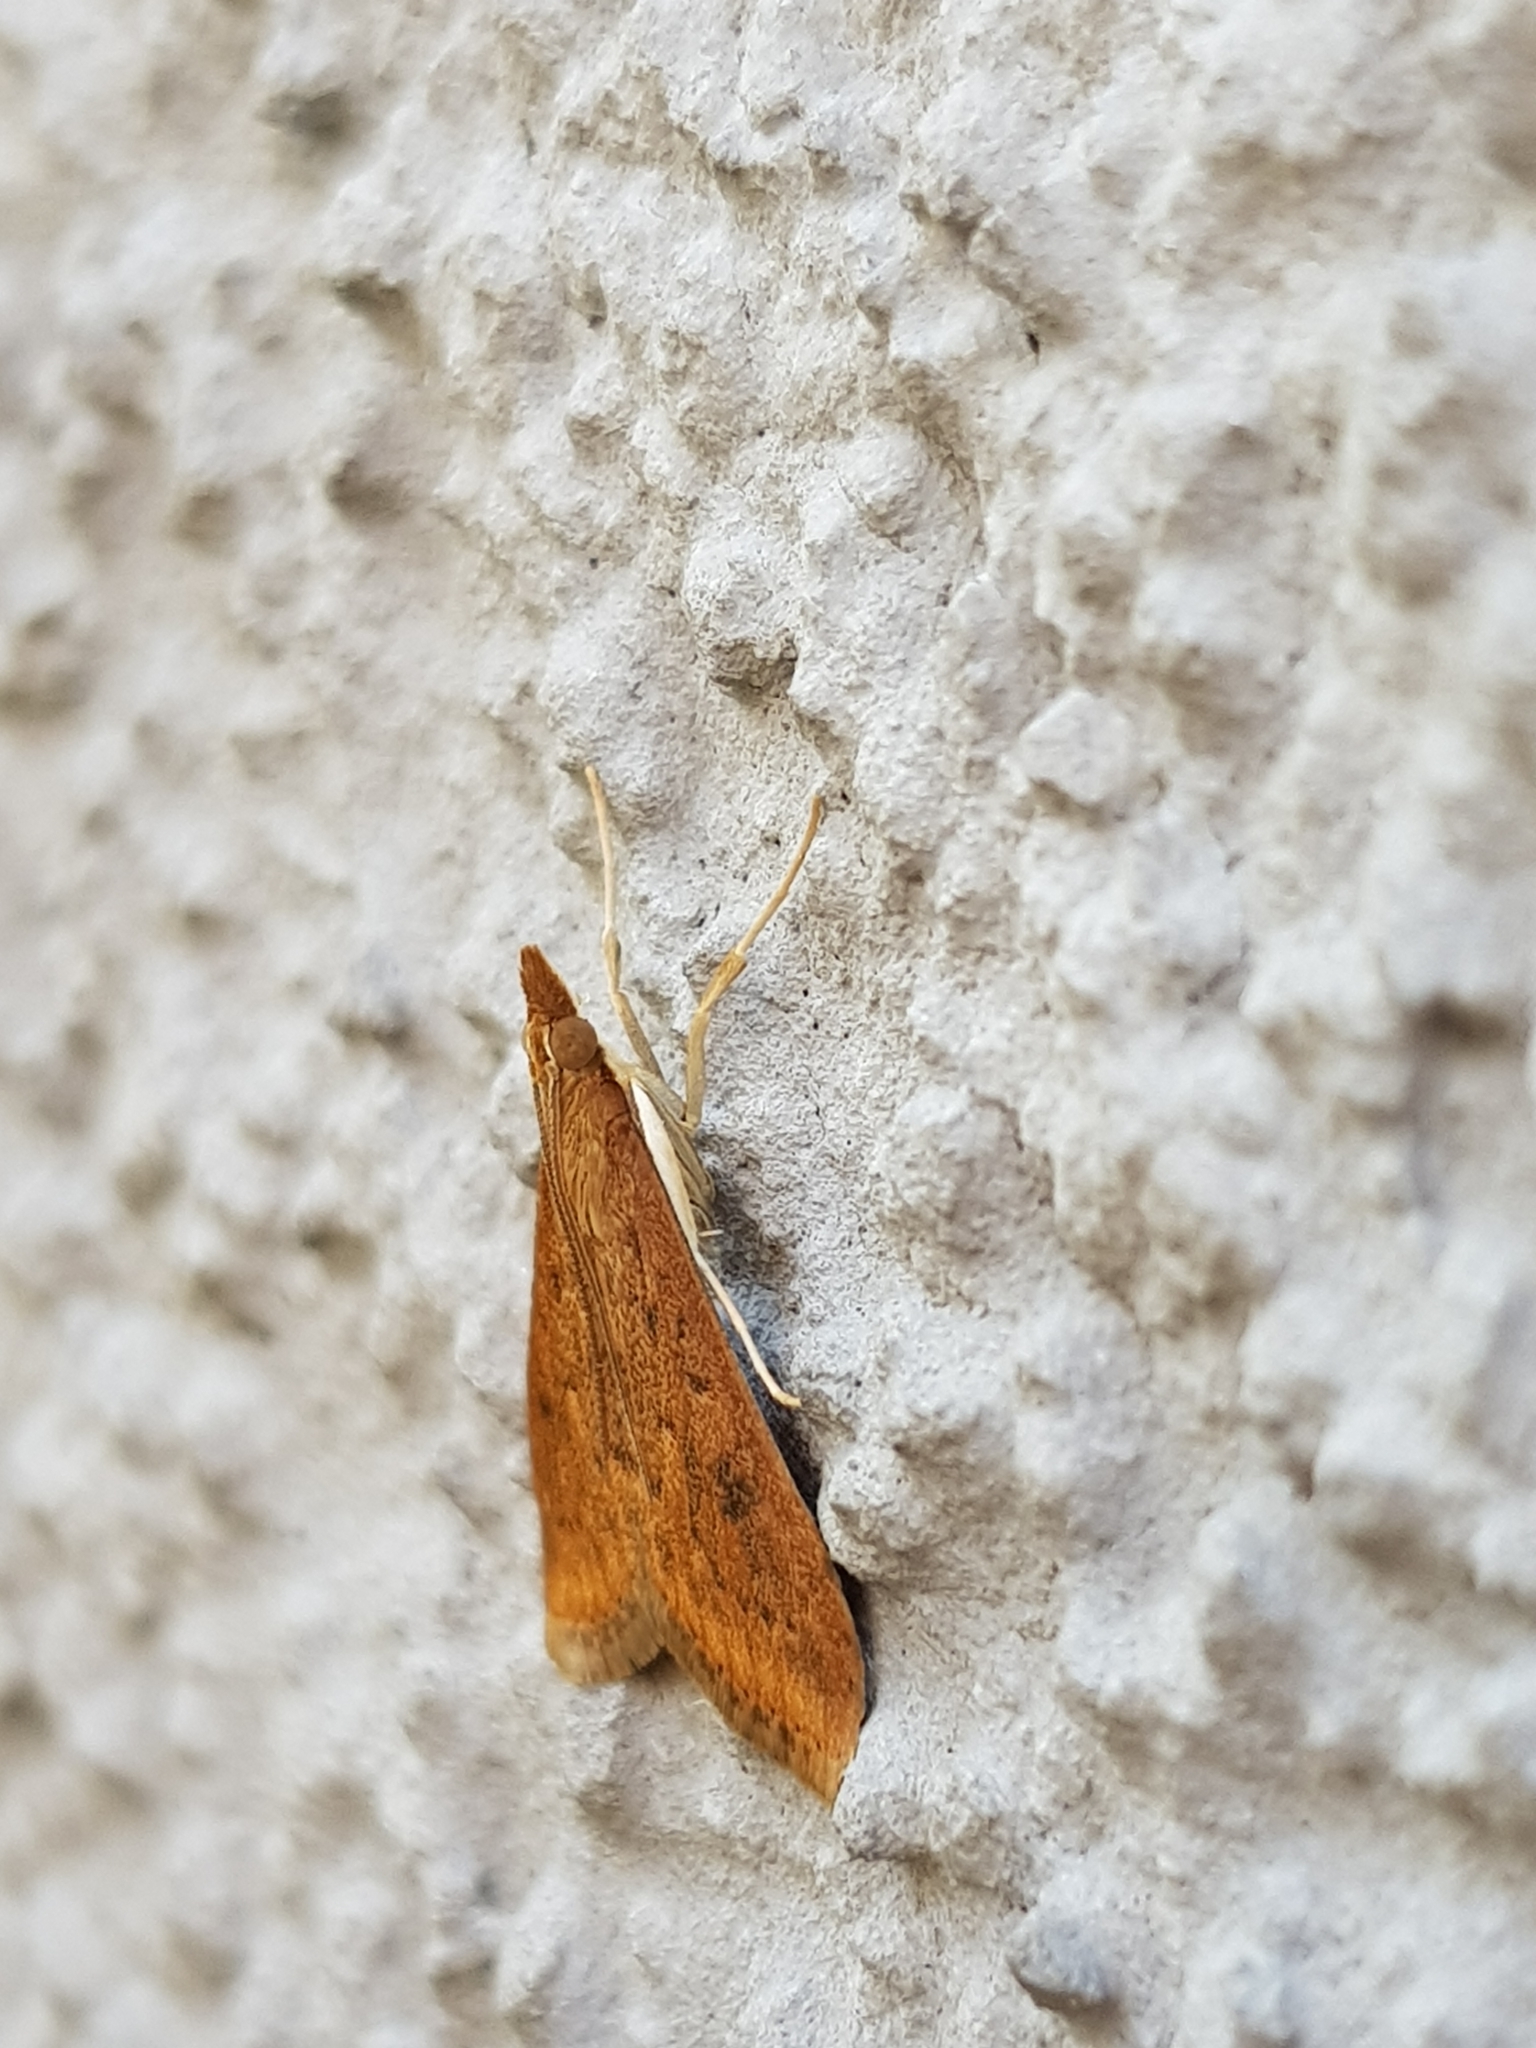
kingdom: Animalia
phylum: Arthropoda
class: Insecta
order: Lepidoptera
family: Crambidae
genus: Udea
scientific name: Udea ferrugalis
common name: Rusty dot
